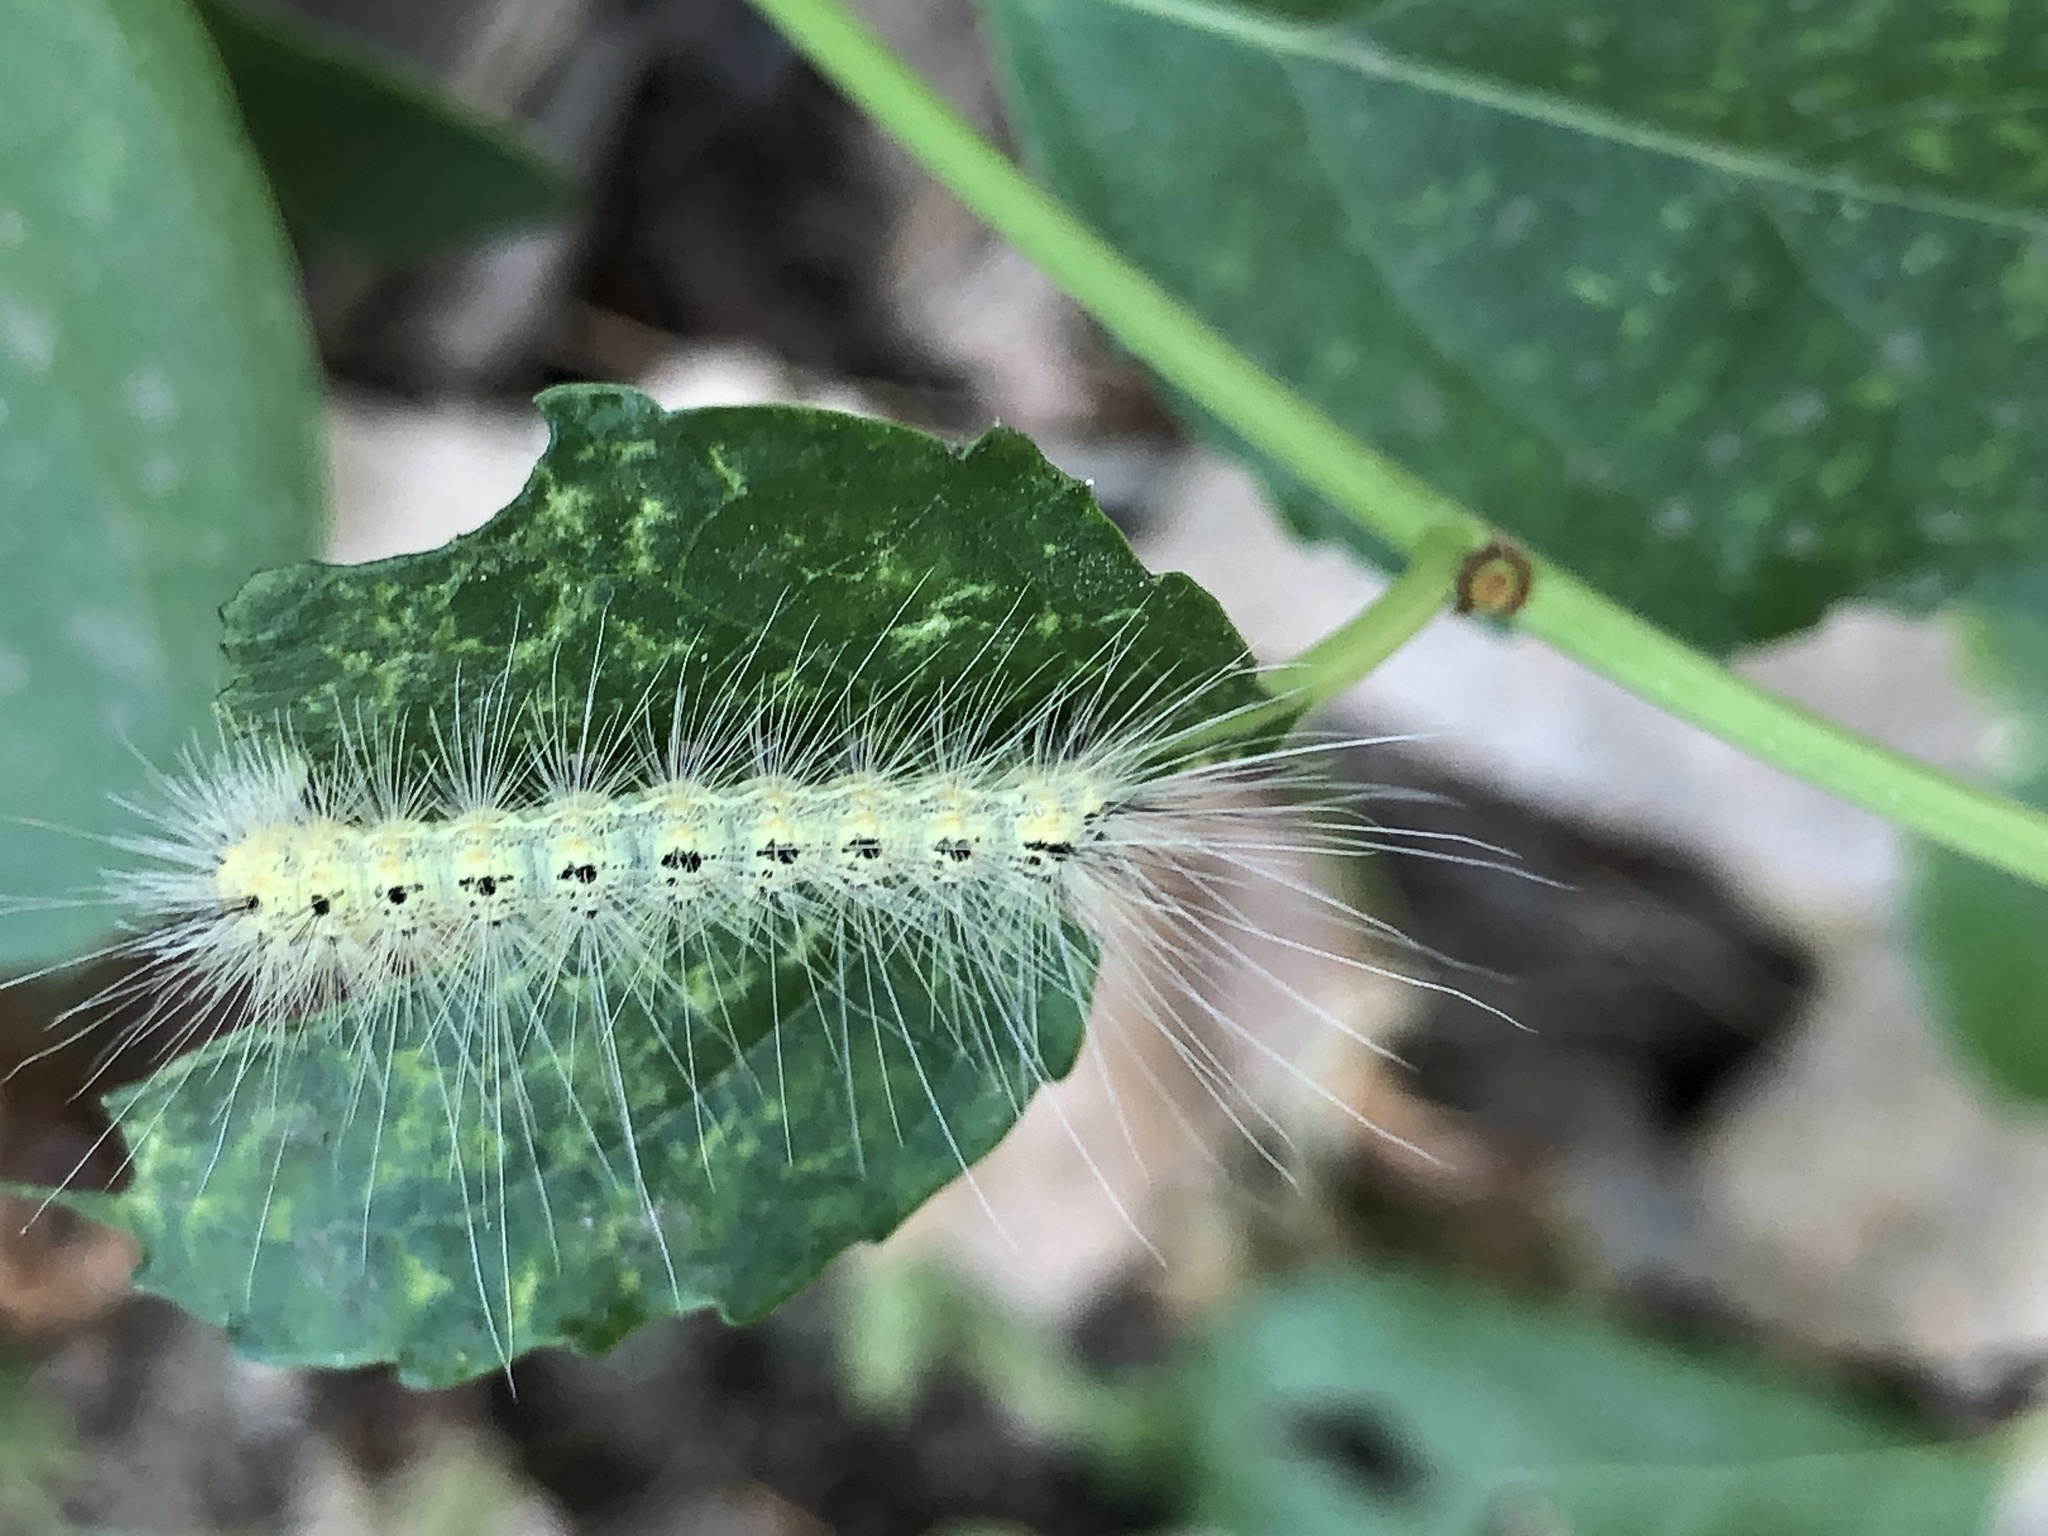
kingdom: Animalia
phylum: Arthropoda
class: Insecta
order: Lepidoptera
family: Erebidae
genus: Hyphantria
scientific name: Hyphantria cunea
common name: American white moth
